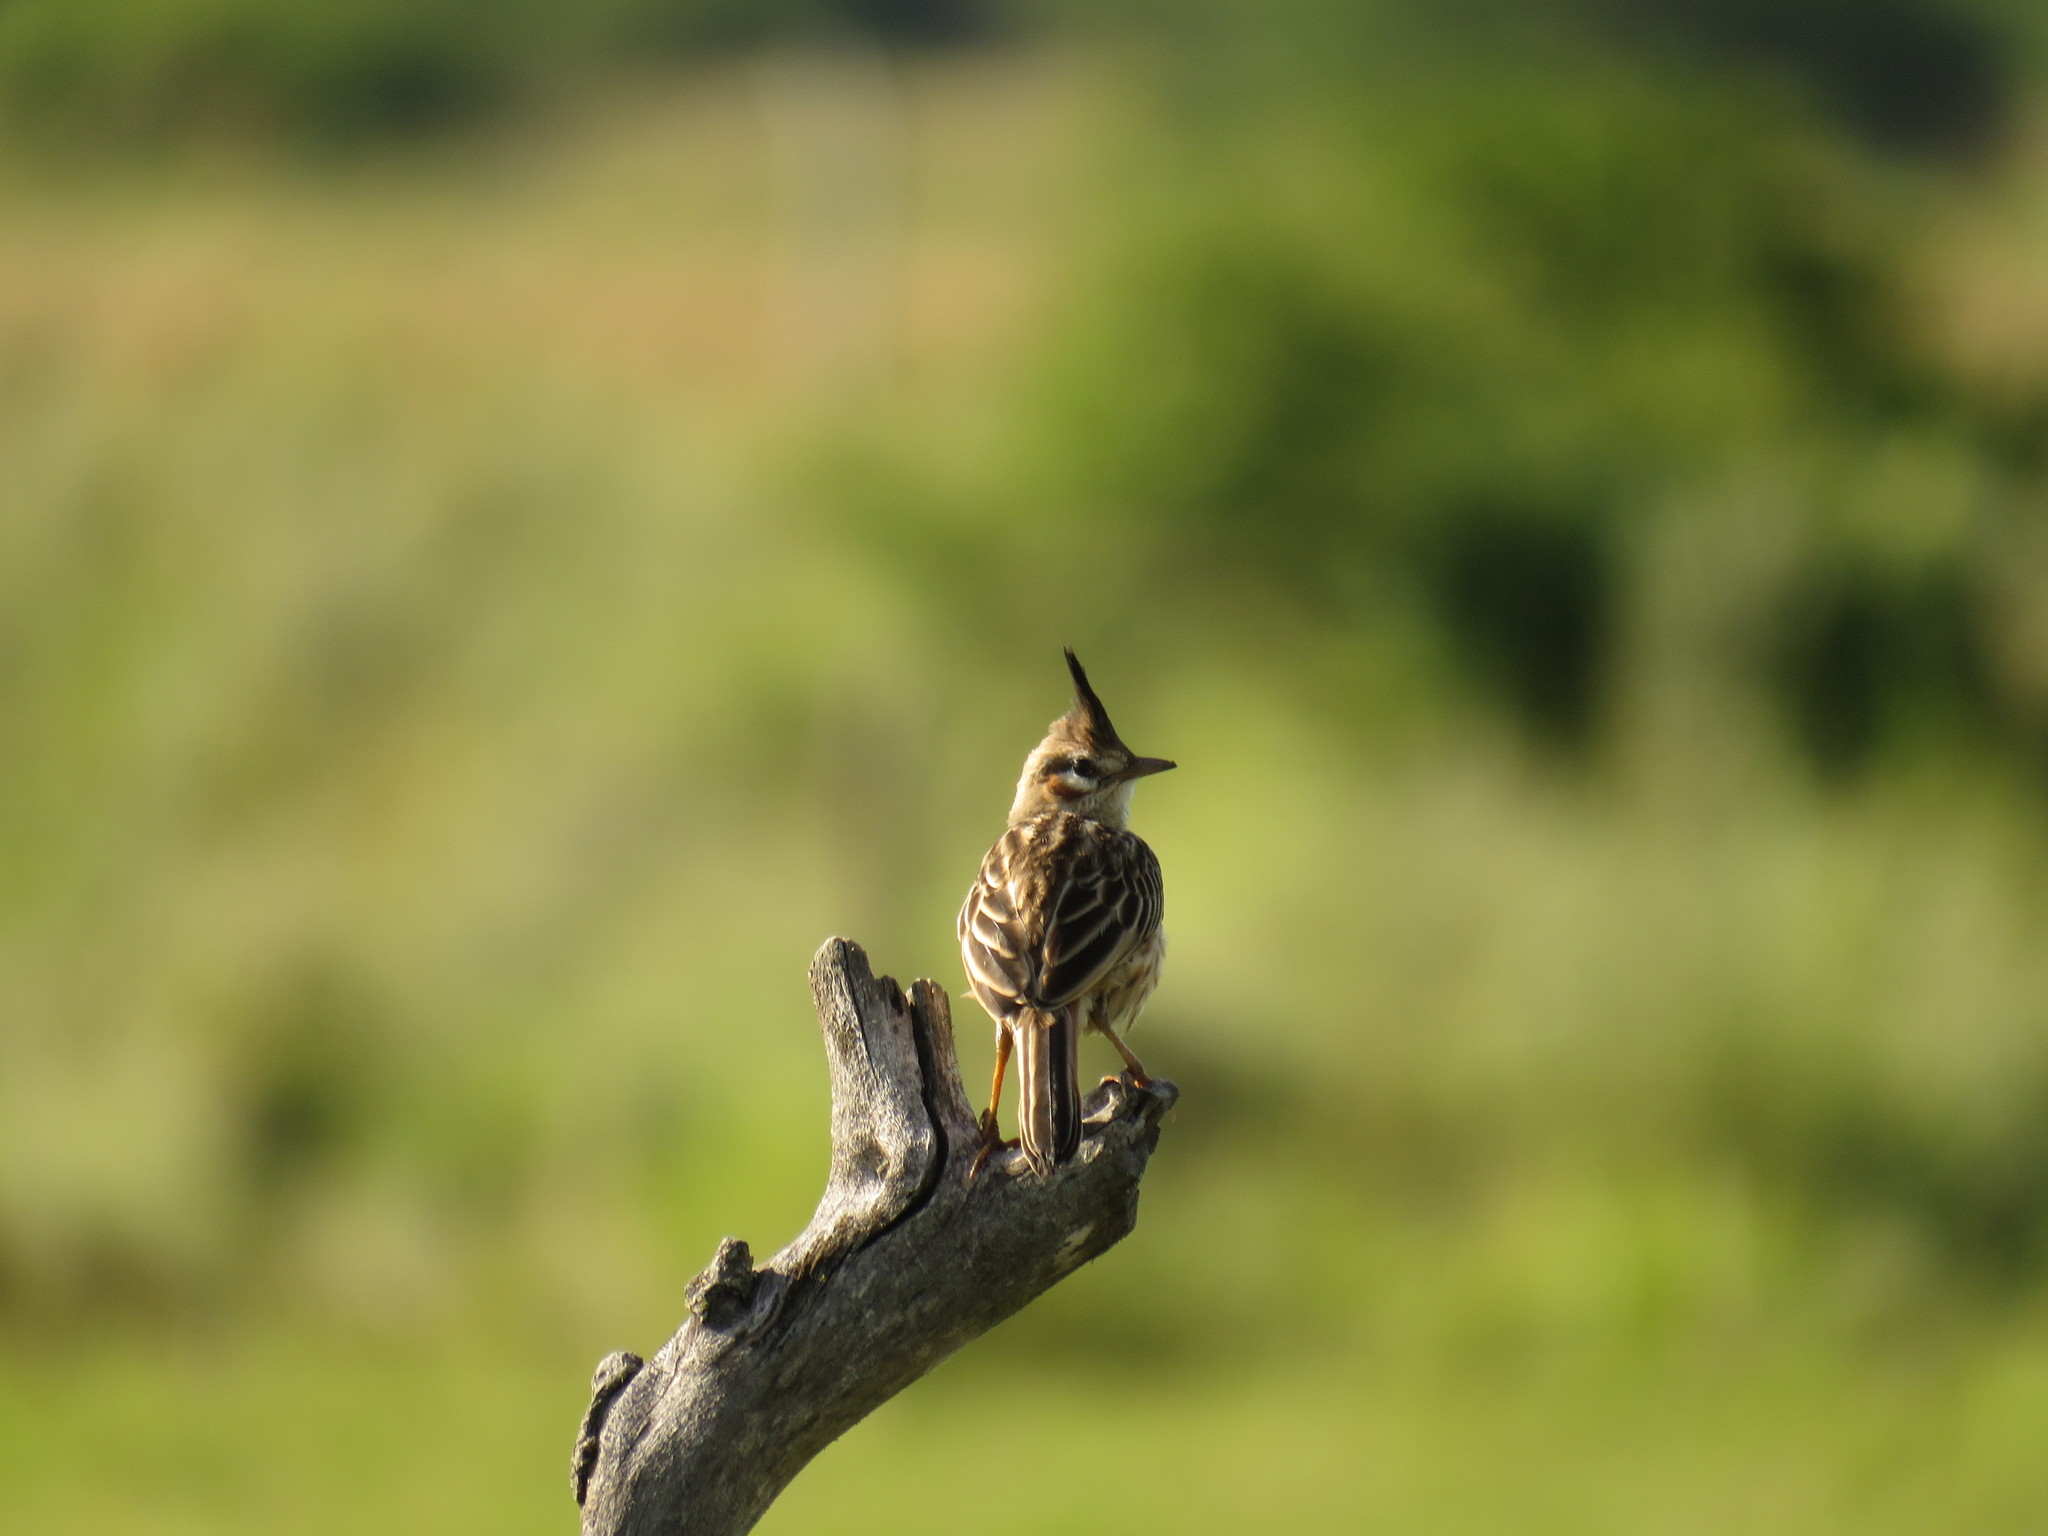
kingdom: Animalia
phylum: Chordata
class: Aves
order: Passeriformes
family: Furnariidae
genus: Coryphistera
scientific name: Coryphistera alaudina
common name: Lark-like brushrunner
